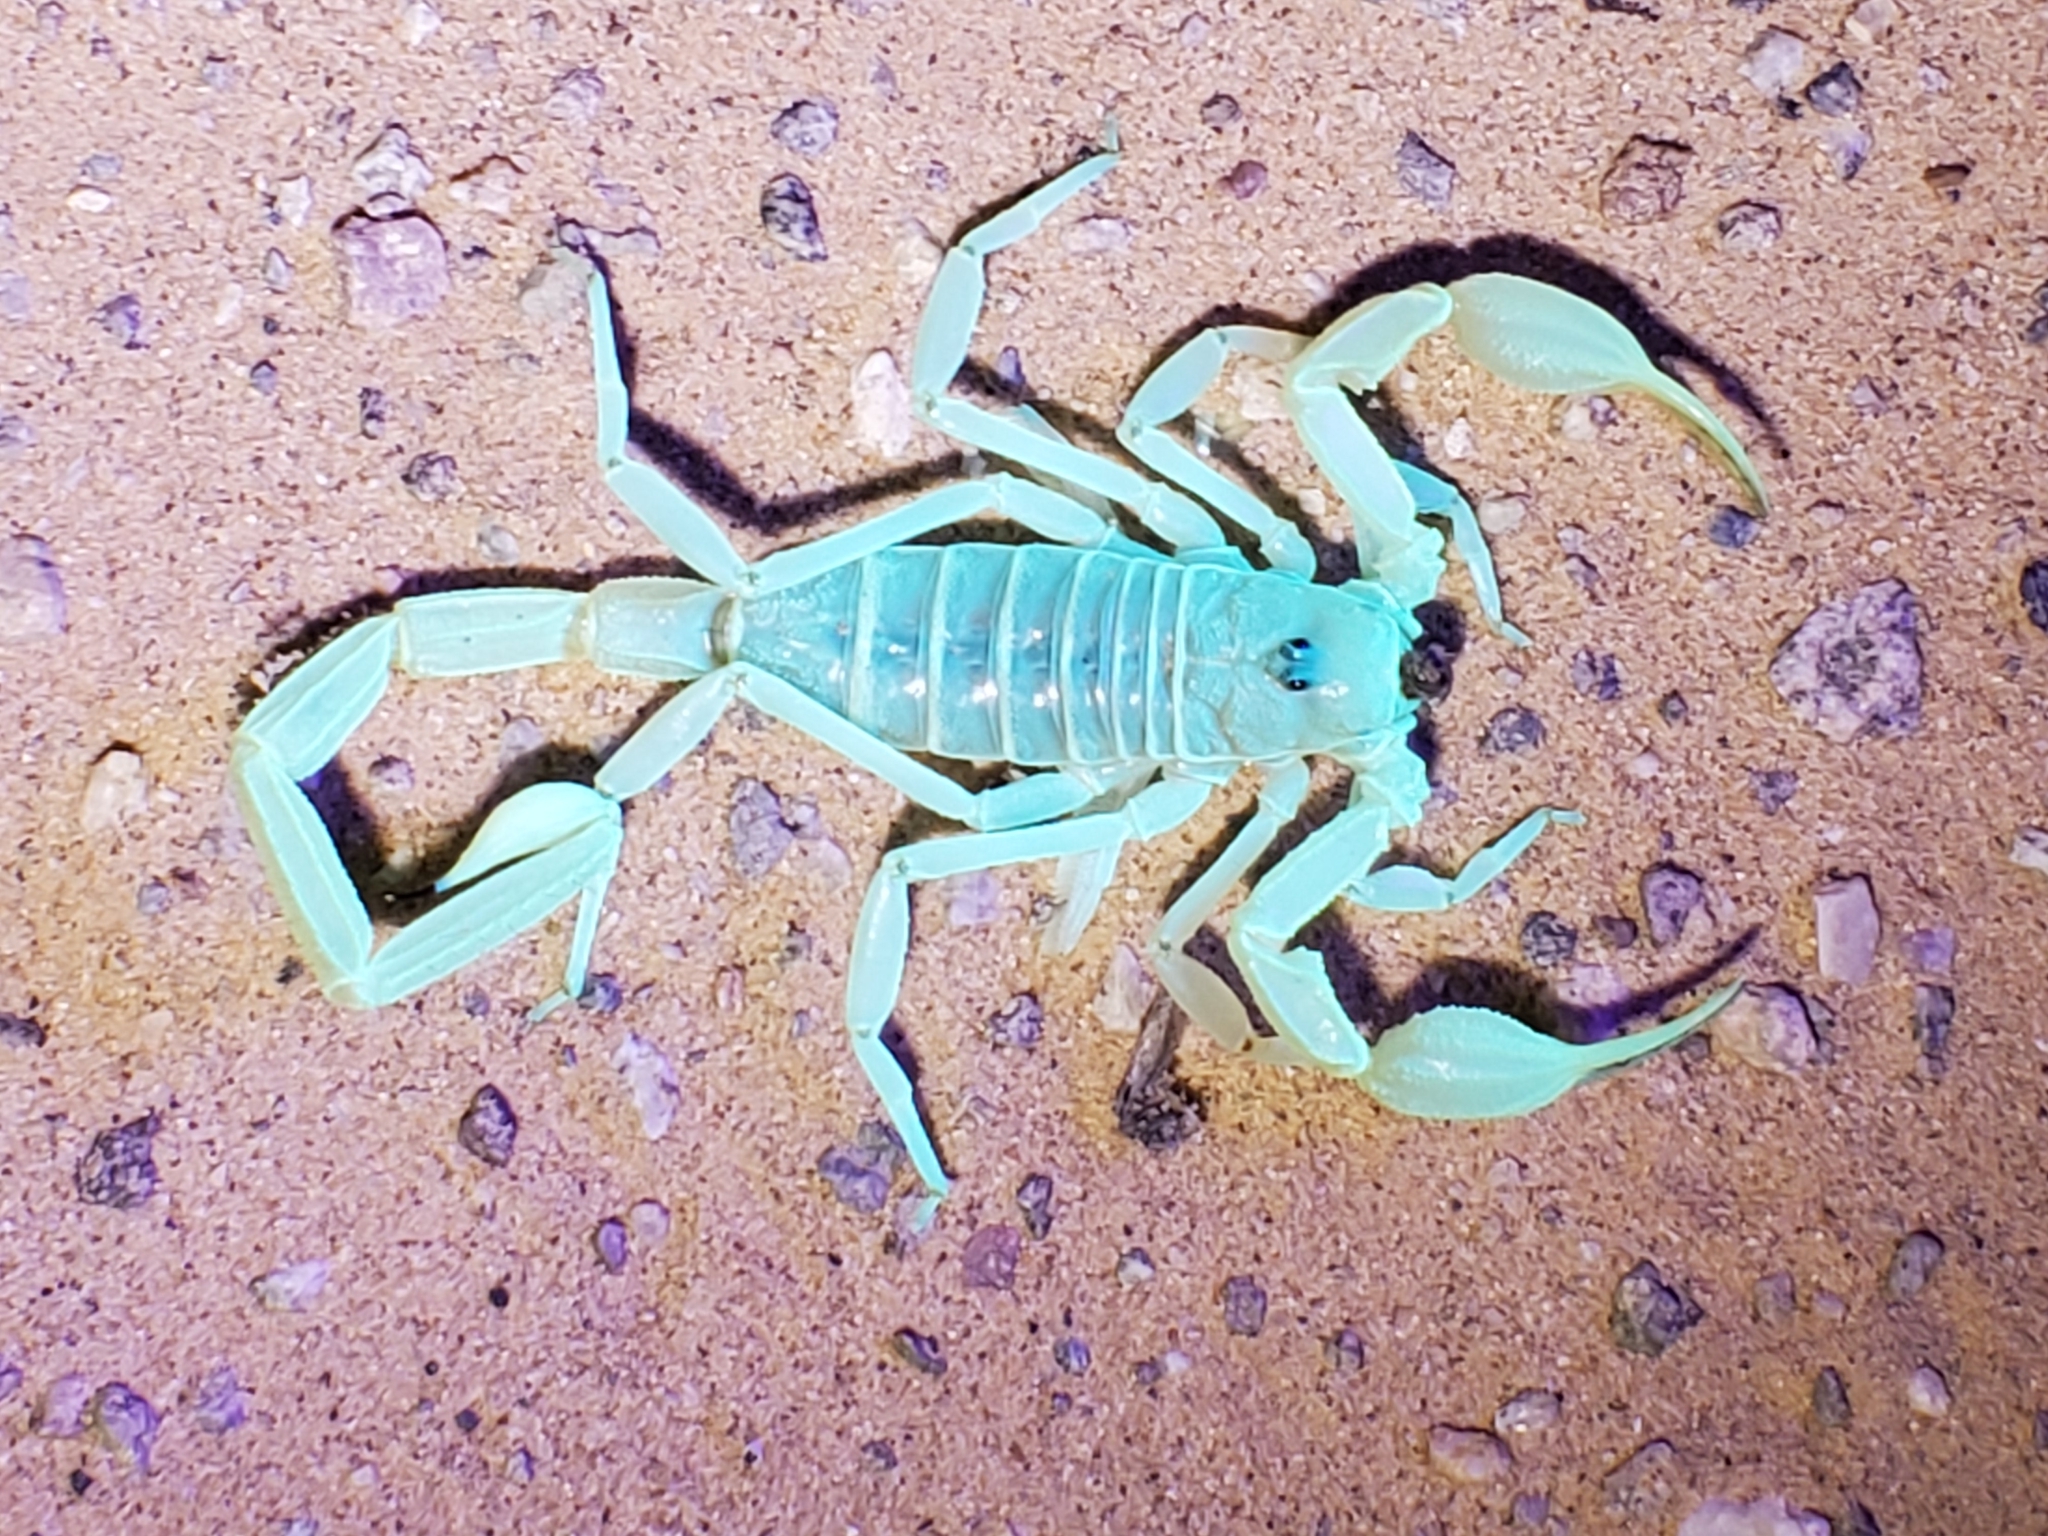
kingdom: Animalia
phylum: Arthropoda
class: Arachnida
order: Scorpiones
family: Vaejovidae
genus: Smeringurus
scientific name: Smeringurus mesaensis
